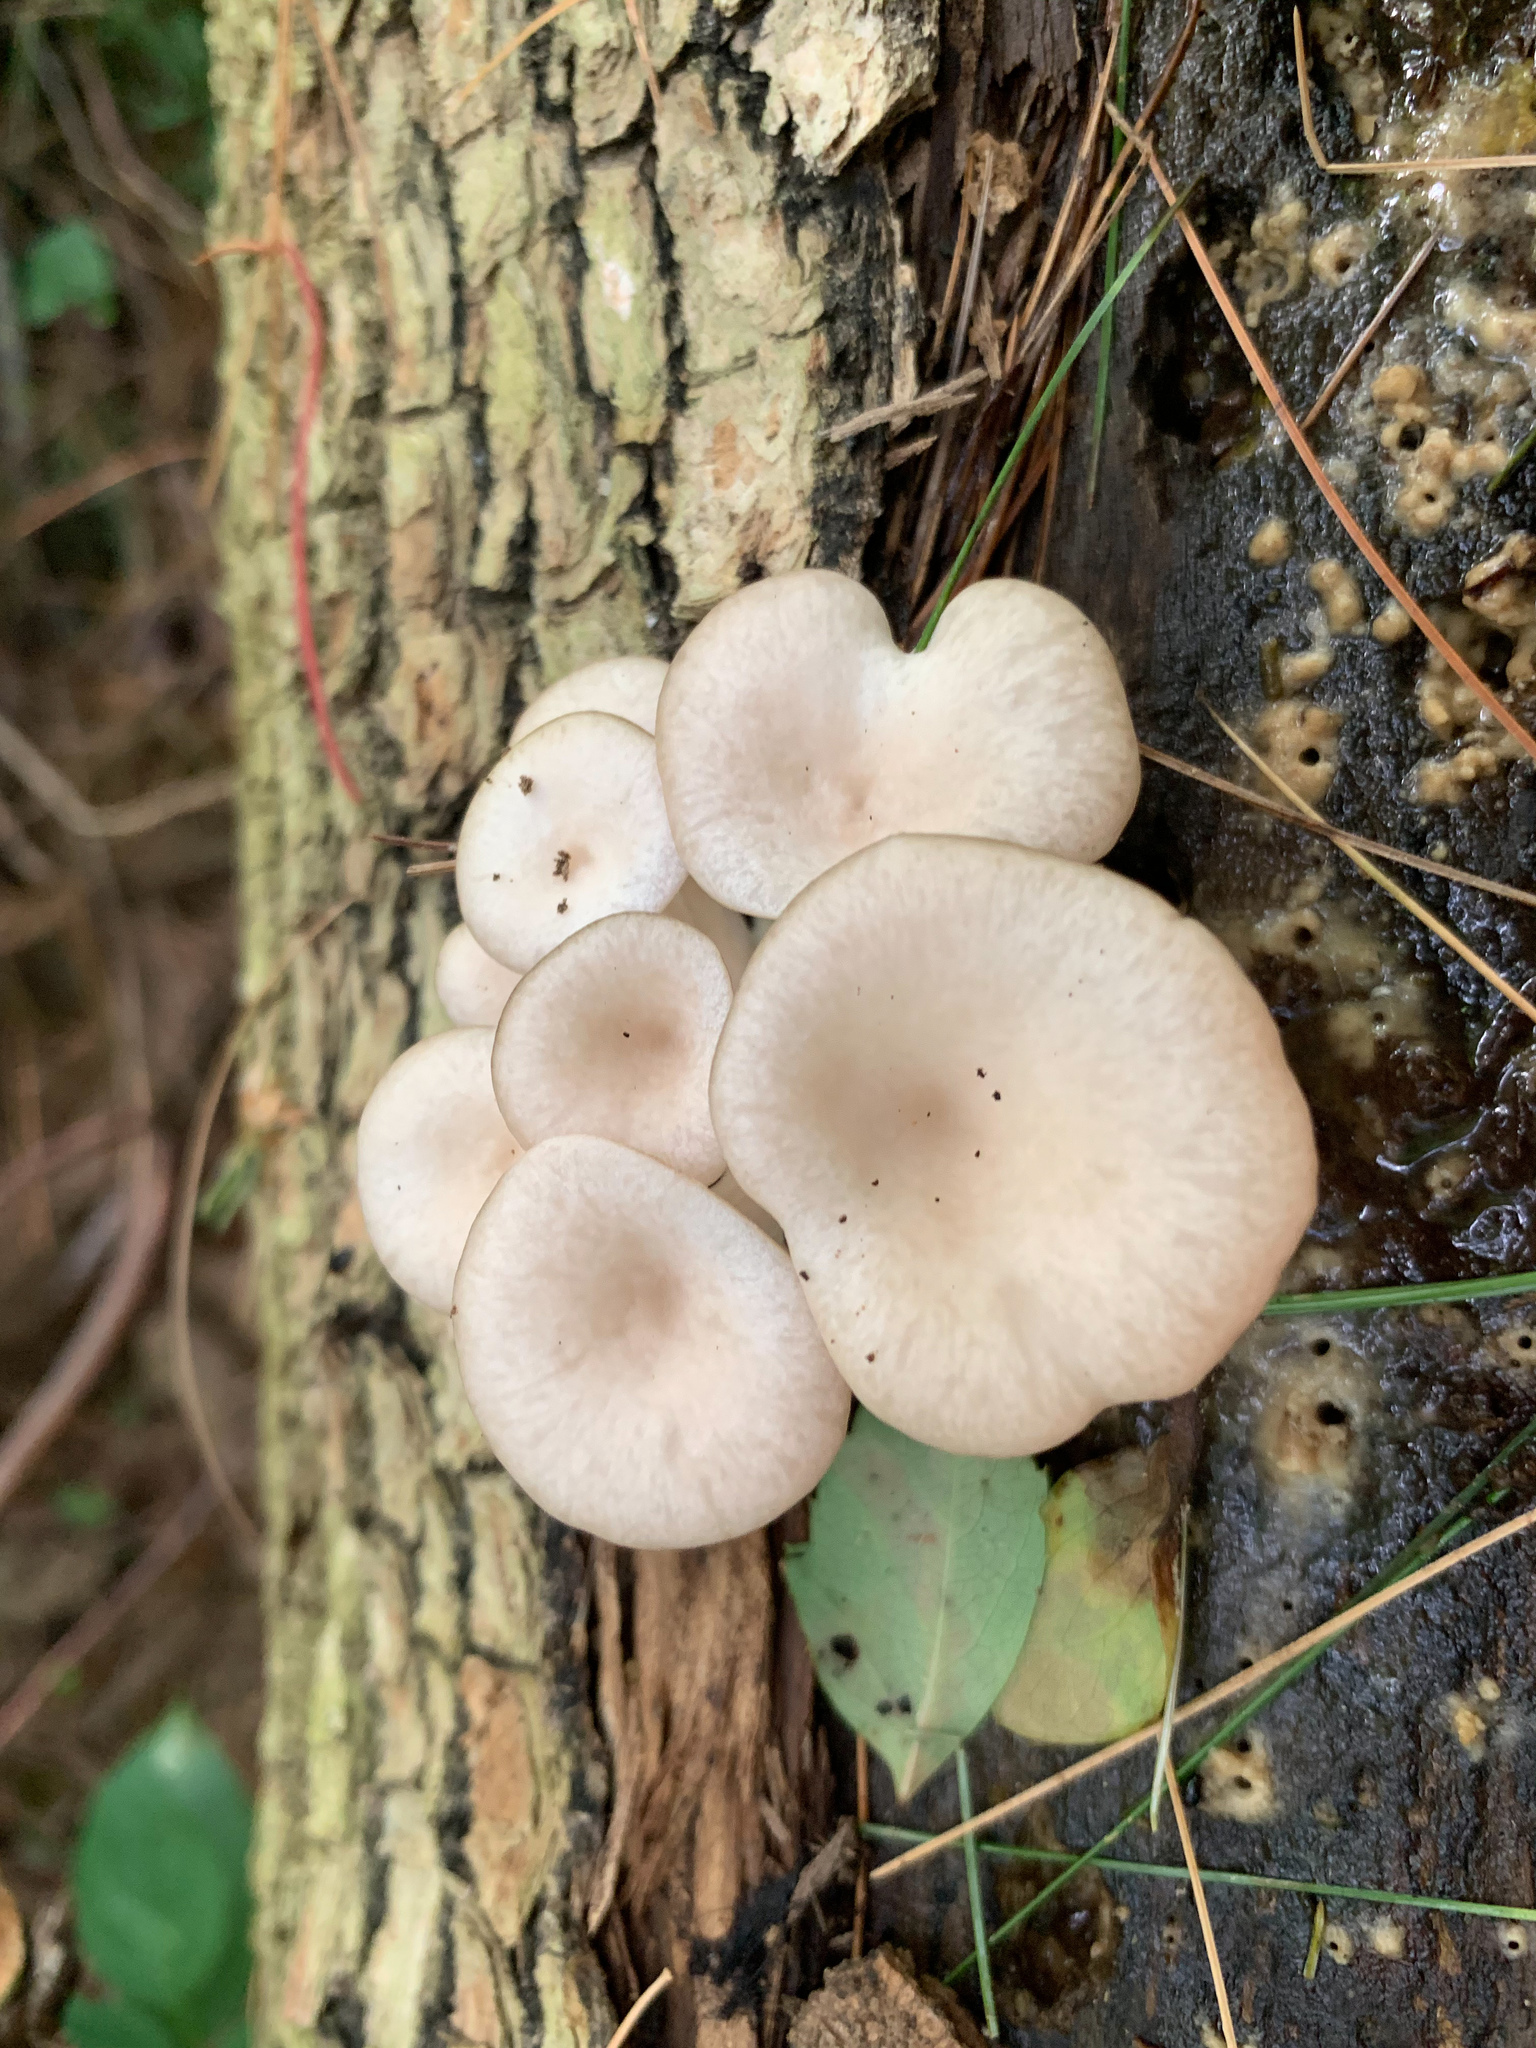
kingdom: Fungi
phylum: Basidiomycota
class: Agaricomycetes
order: Agaricales
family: Pleurotaceae
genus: Pleurotus
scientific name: Pleurotus pulmonarius
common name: Pale oyster
